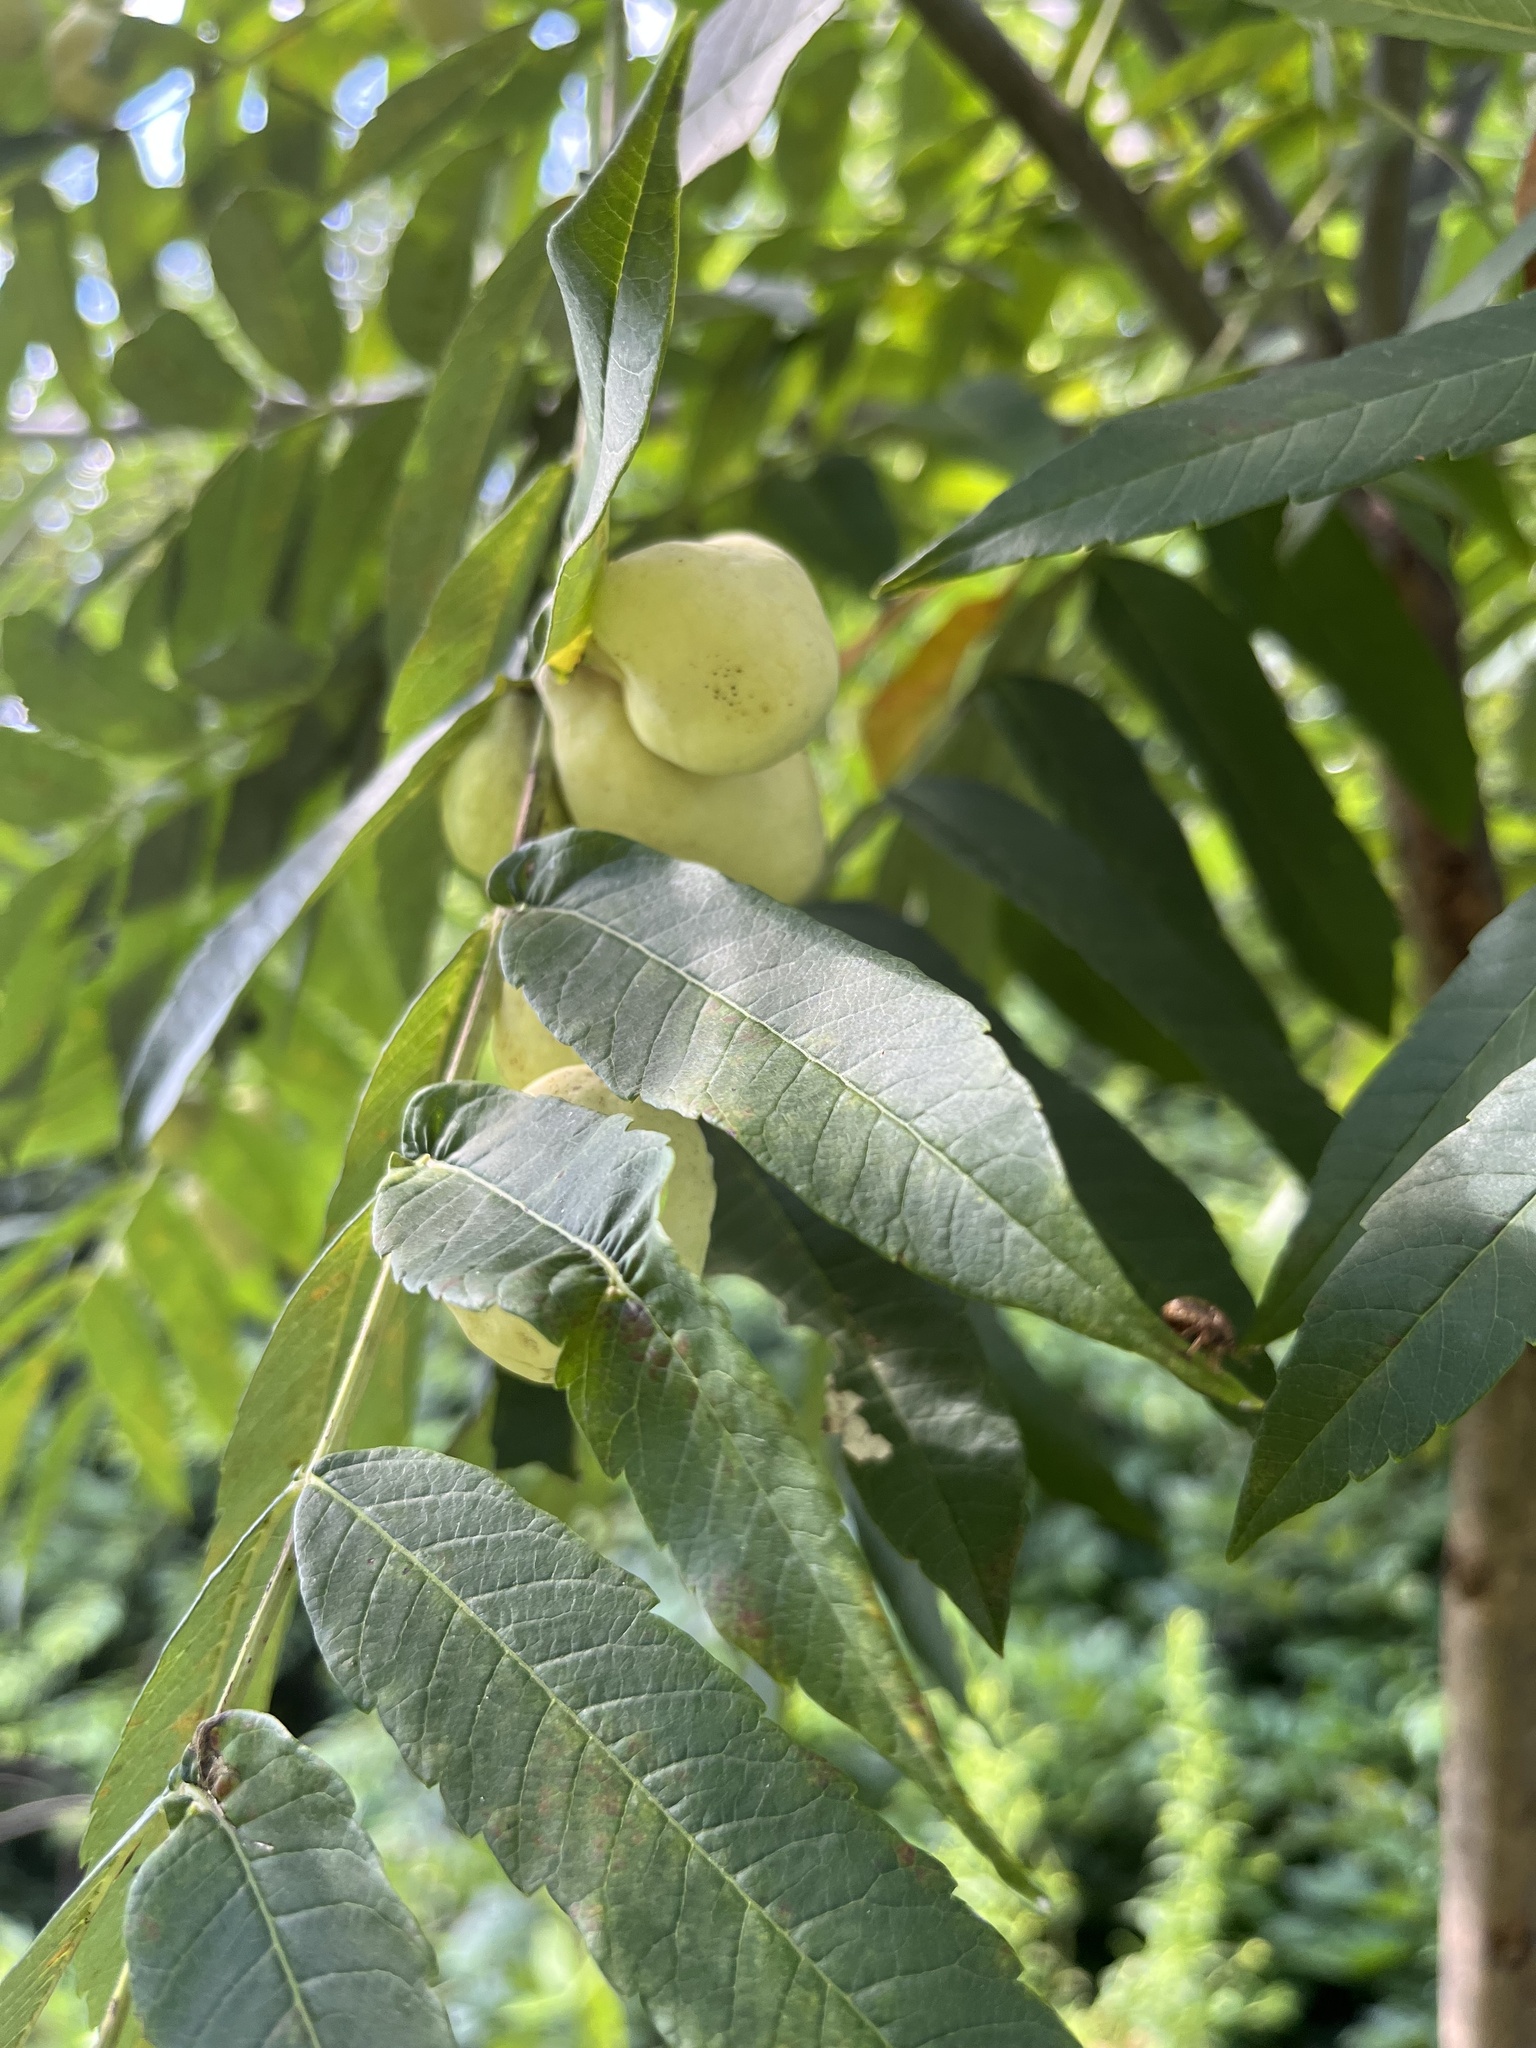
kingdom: Animalia
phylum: Arthropoda
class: Insecta
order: Hemiptera
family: Aphididae
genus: Melaphis
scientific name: Melaphis rhois
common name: Sumac gall aphid
